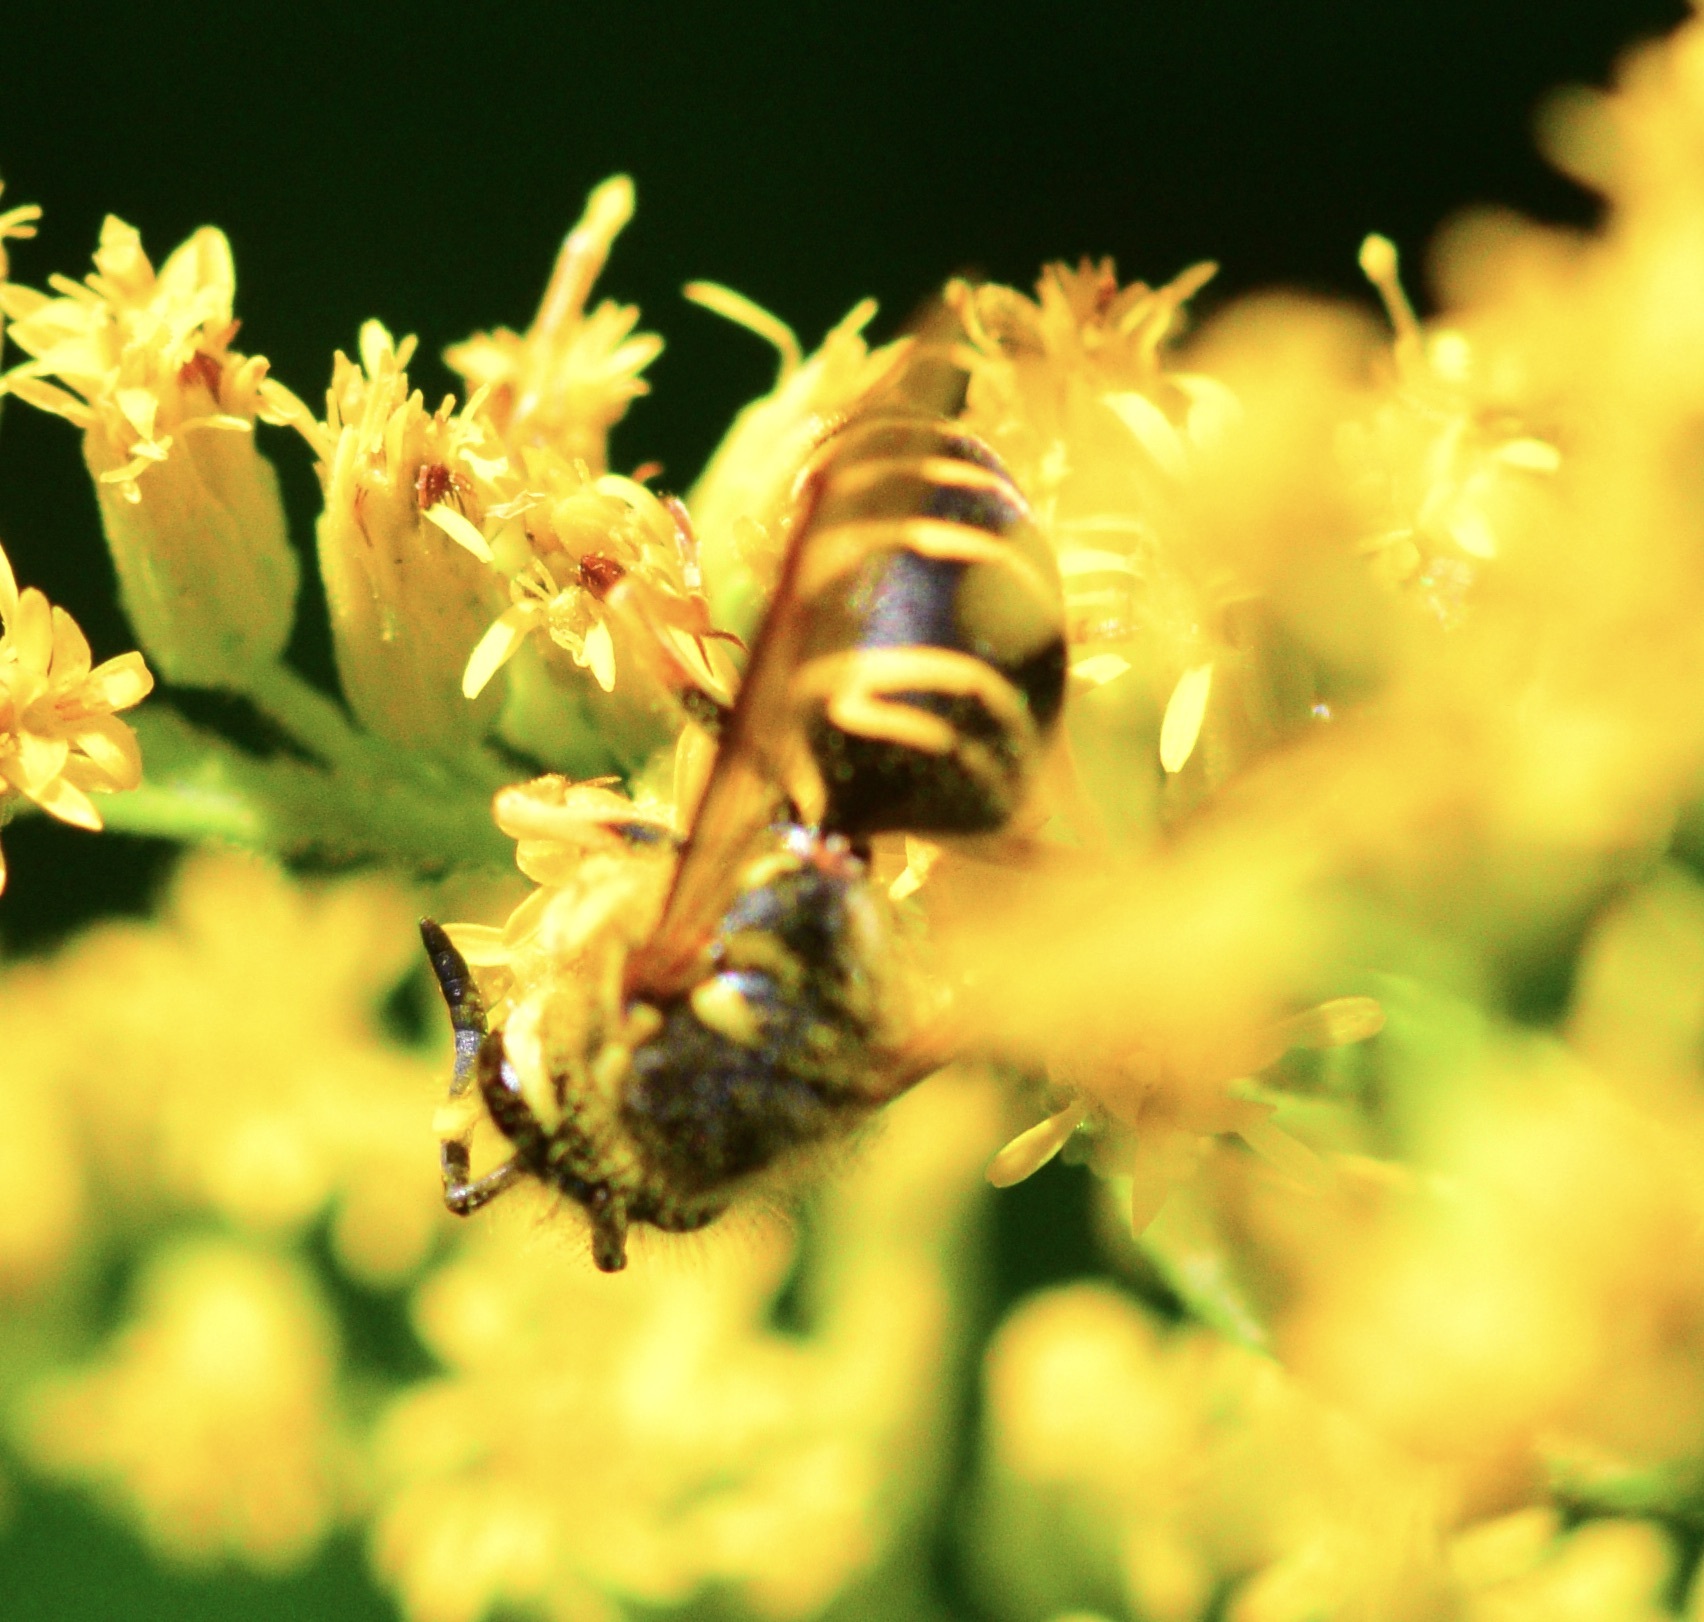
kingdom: Animalia
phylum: Arthropoda
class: Insecta
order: Hymenoptera
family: Vespidae
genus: Vespula
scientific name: Vespula maculifrons
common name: Eastern yellowjacket
